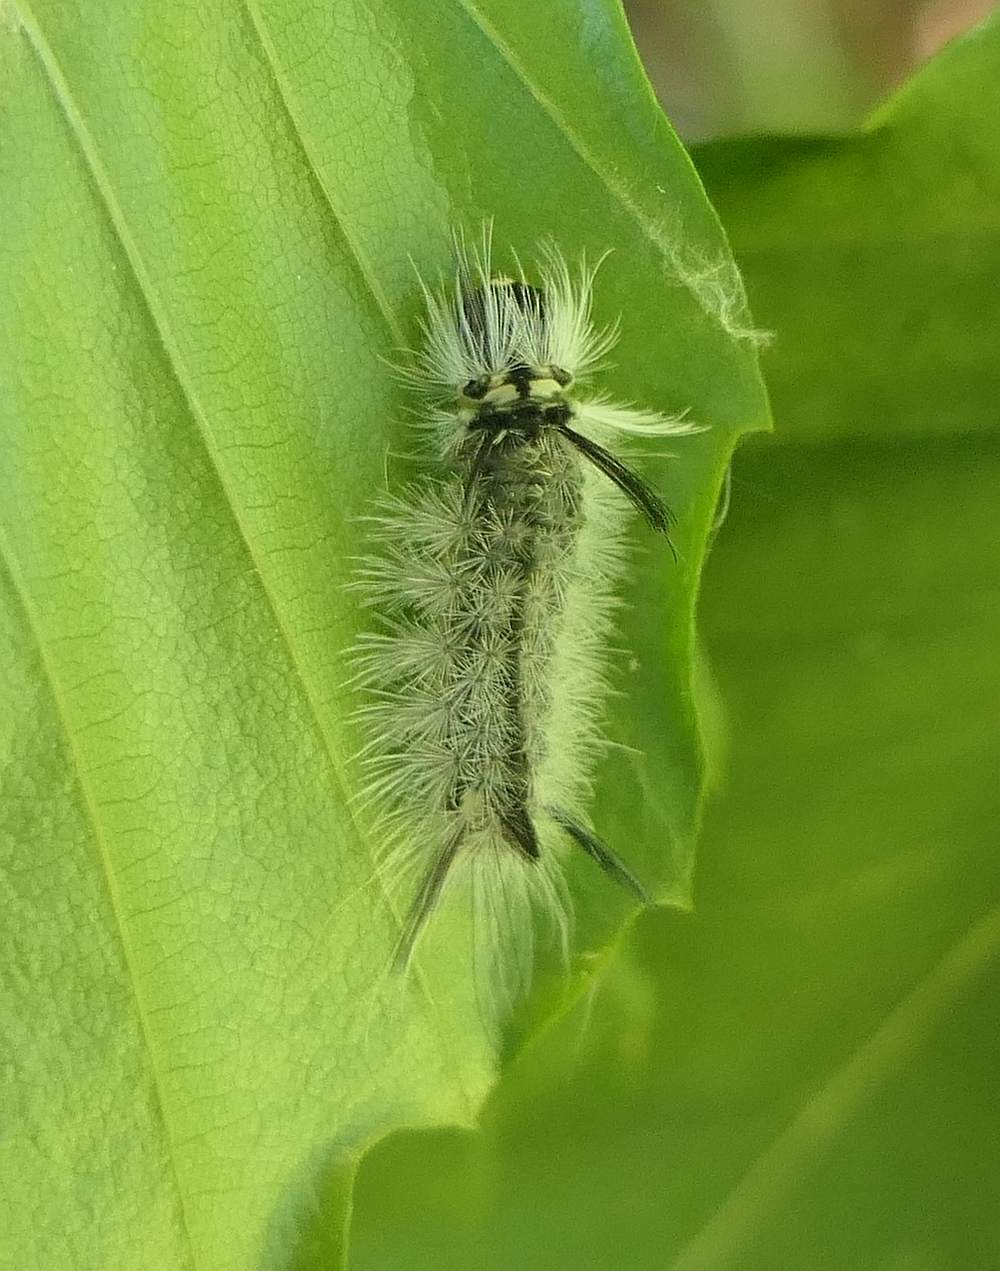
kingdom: Animalia
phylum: Arthropoda
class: Insecta
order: Lepidoptera
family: Erebidae
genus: Halysidota
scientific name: Halysidota tessellaris
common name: Banded tussock moth
